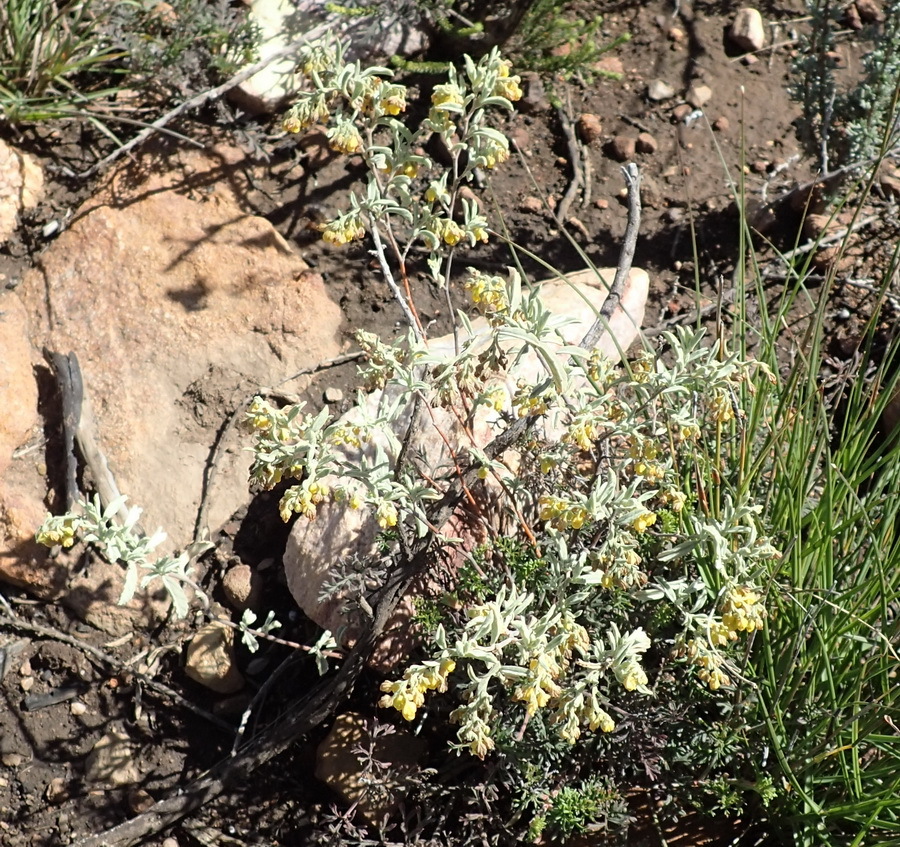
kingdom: Plantae
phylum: Tracheophyta
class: Magnoliopsida
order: Malvales
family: Malvaceae
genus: Hermannia
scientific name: Hermannia holosericea
